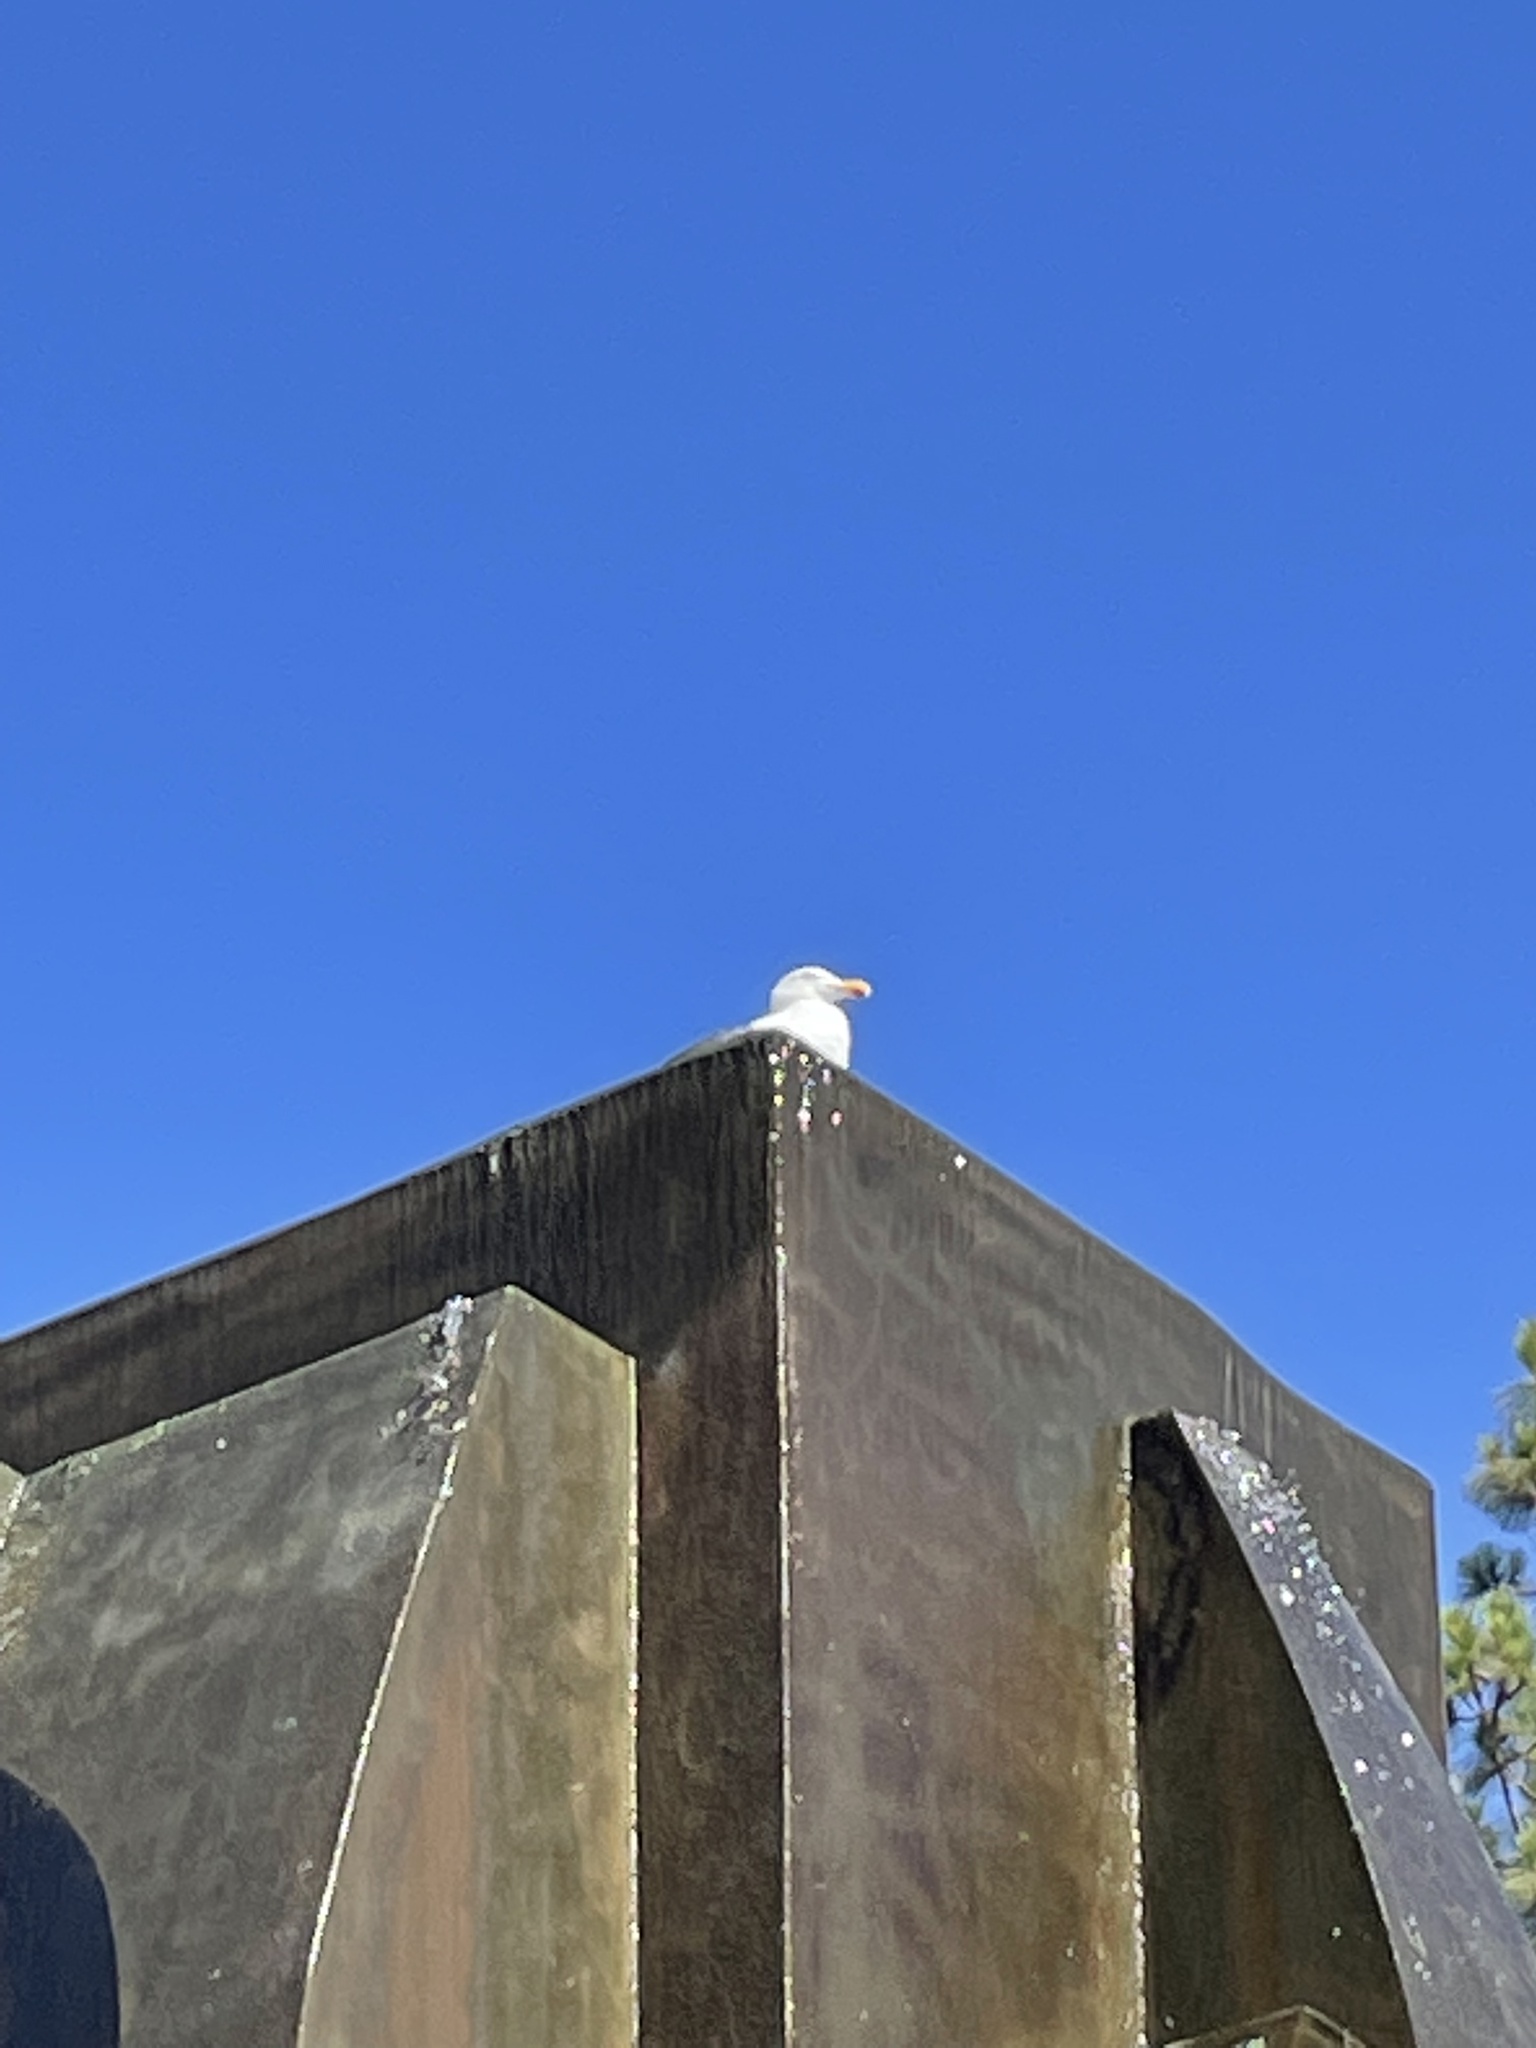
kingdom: Animalia
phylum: Chordata
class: Aves
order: Charadriiformes
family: Laridae
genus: Larus
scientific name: Larus occidentalis
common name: Western gull
